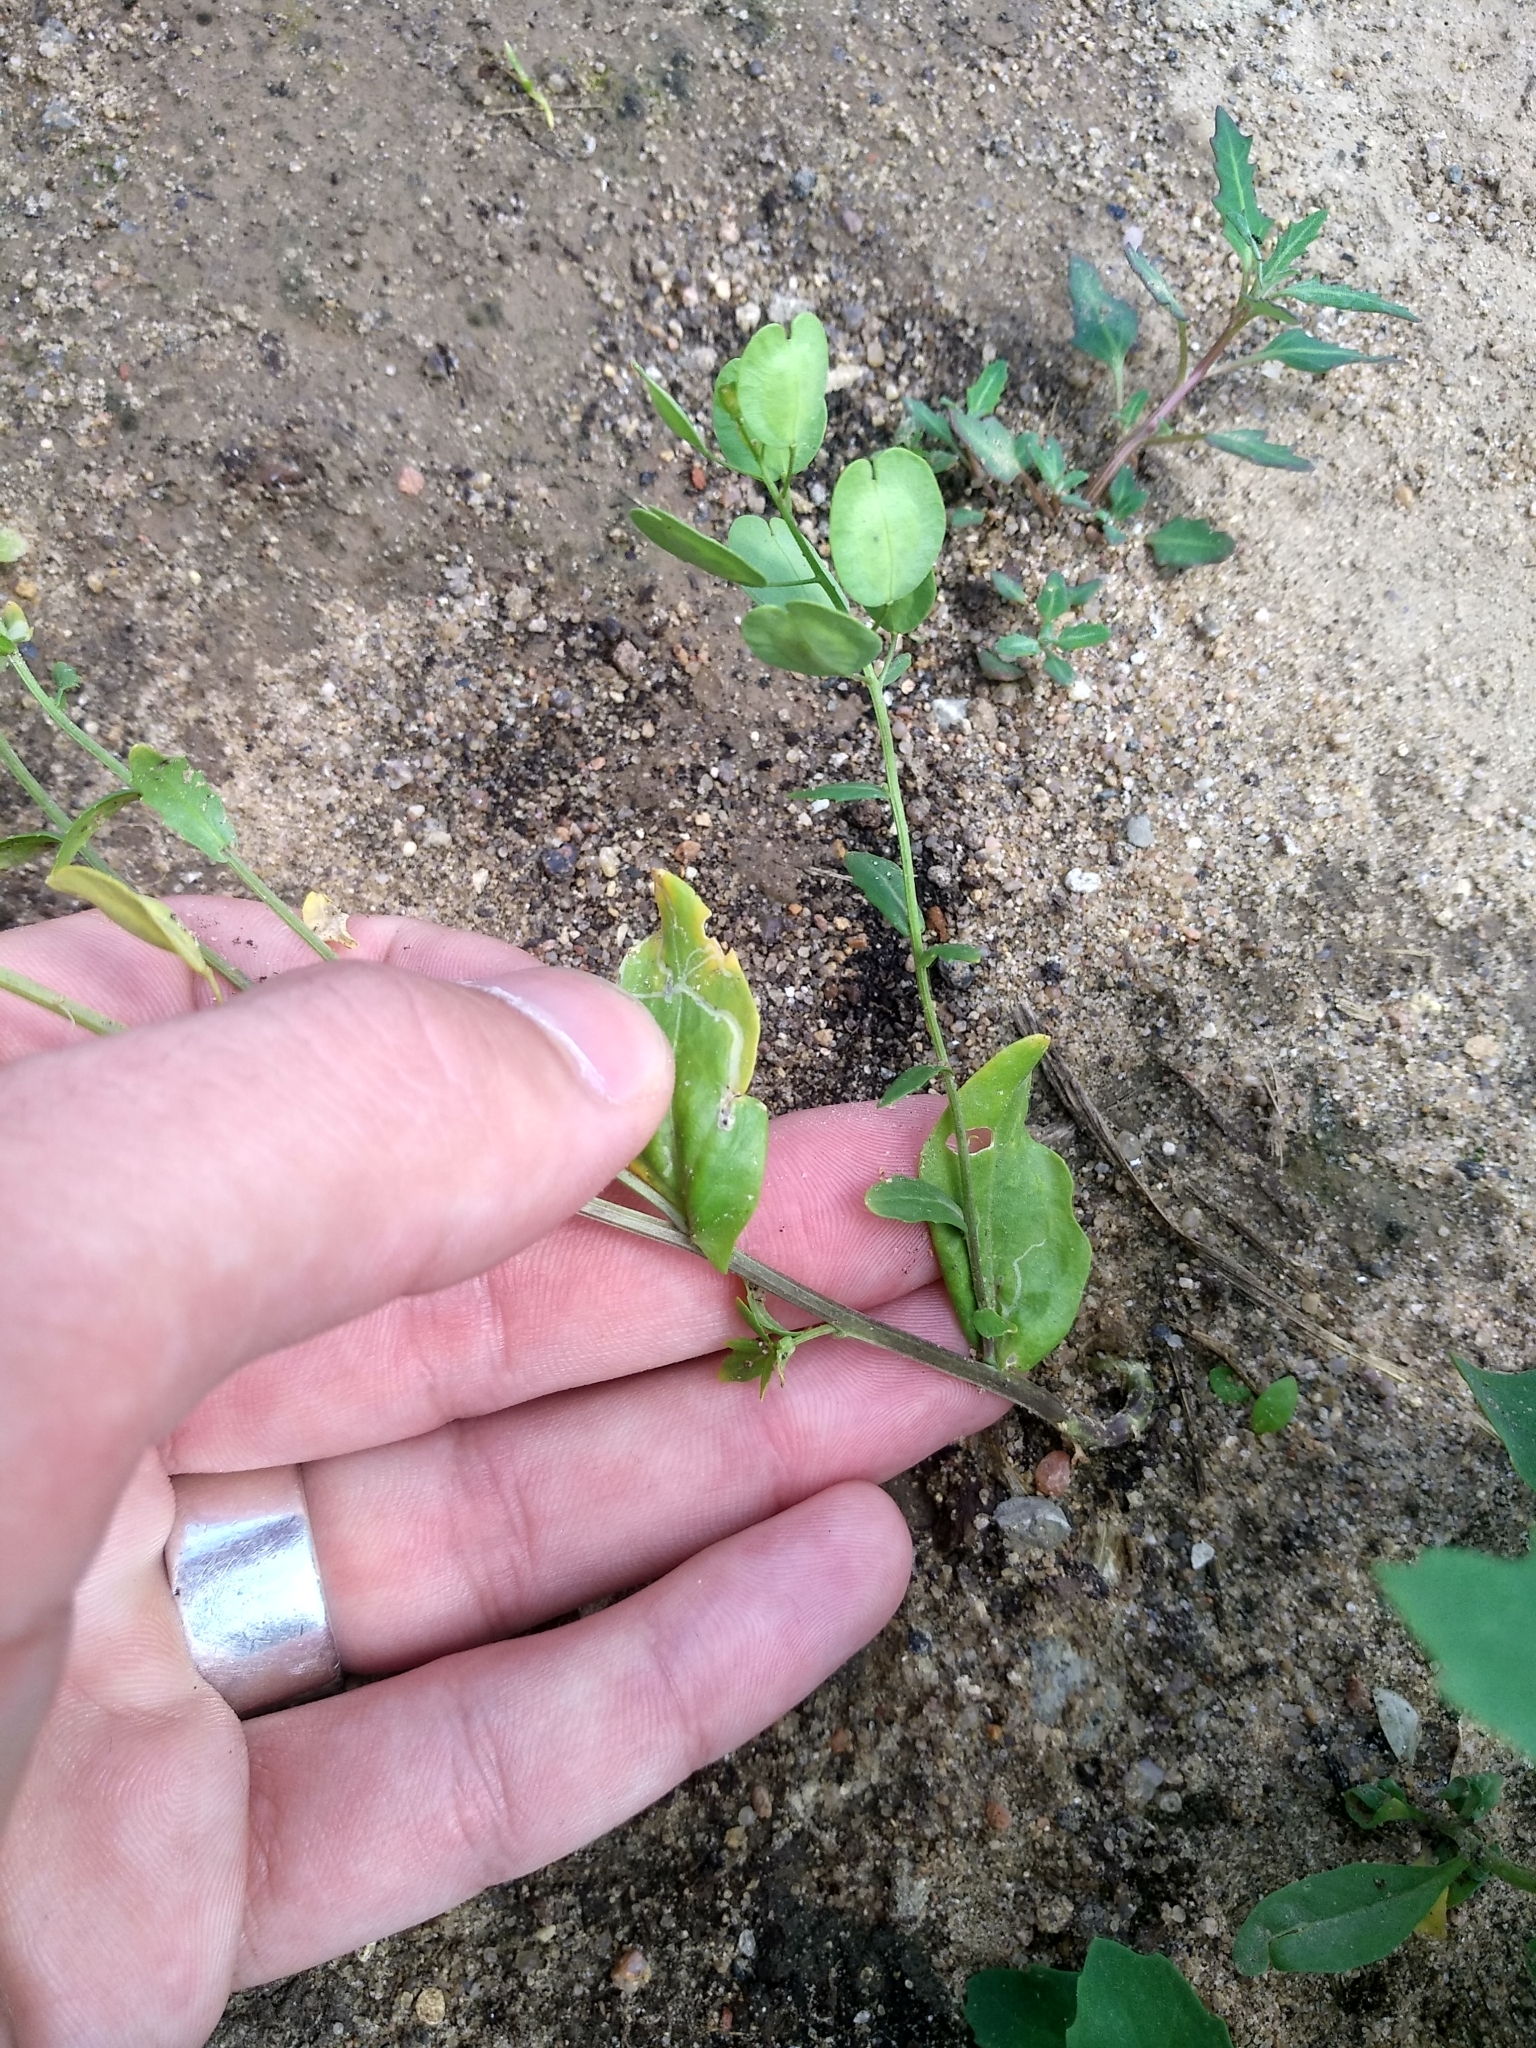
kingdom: Plantae
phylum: Tracheophyta
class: Magnoliopsida
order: Brassicales
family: Brassicaceae
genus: Thlaspi
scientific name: Thlaspi arvense
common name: Field pennycress
